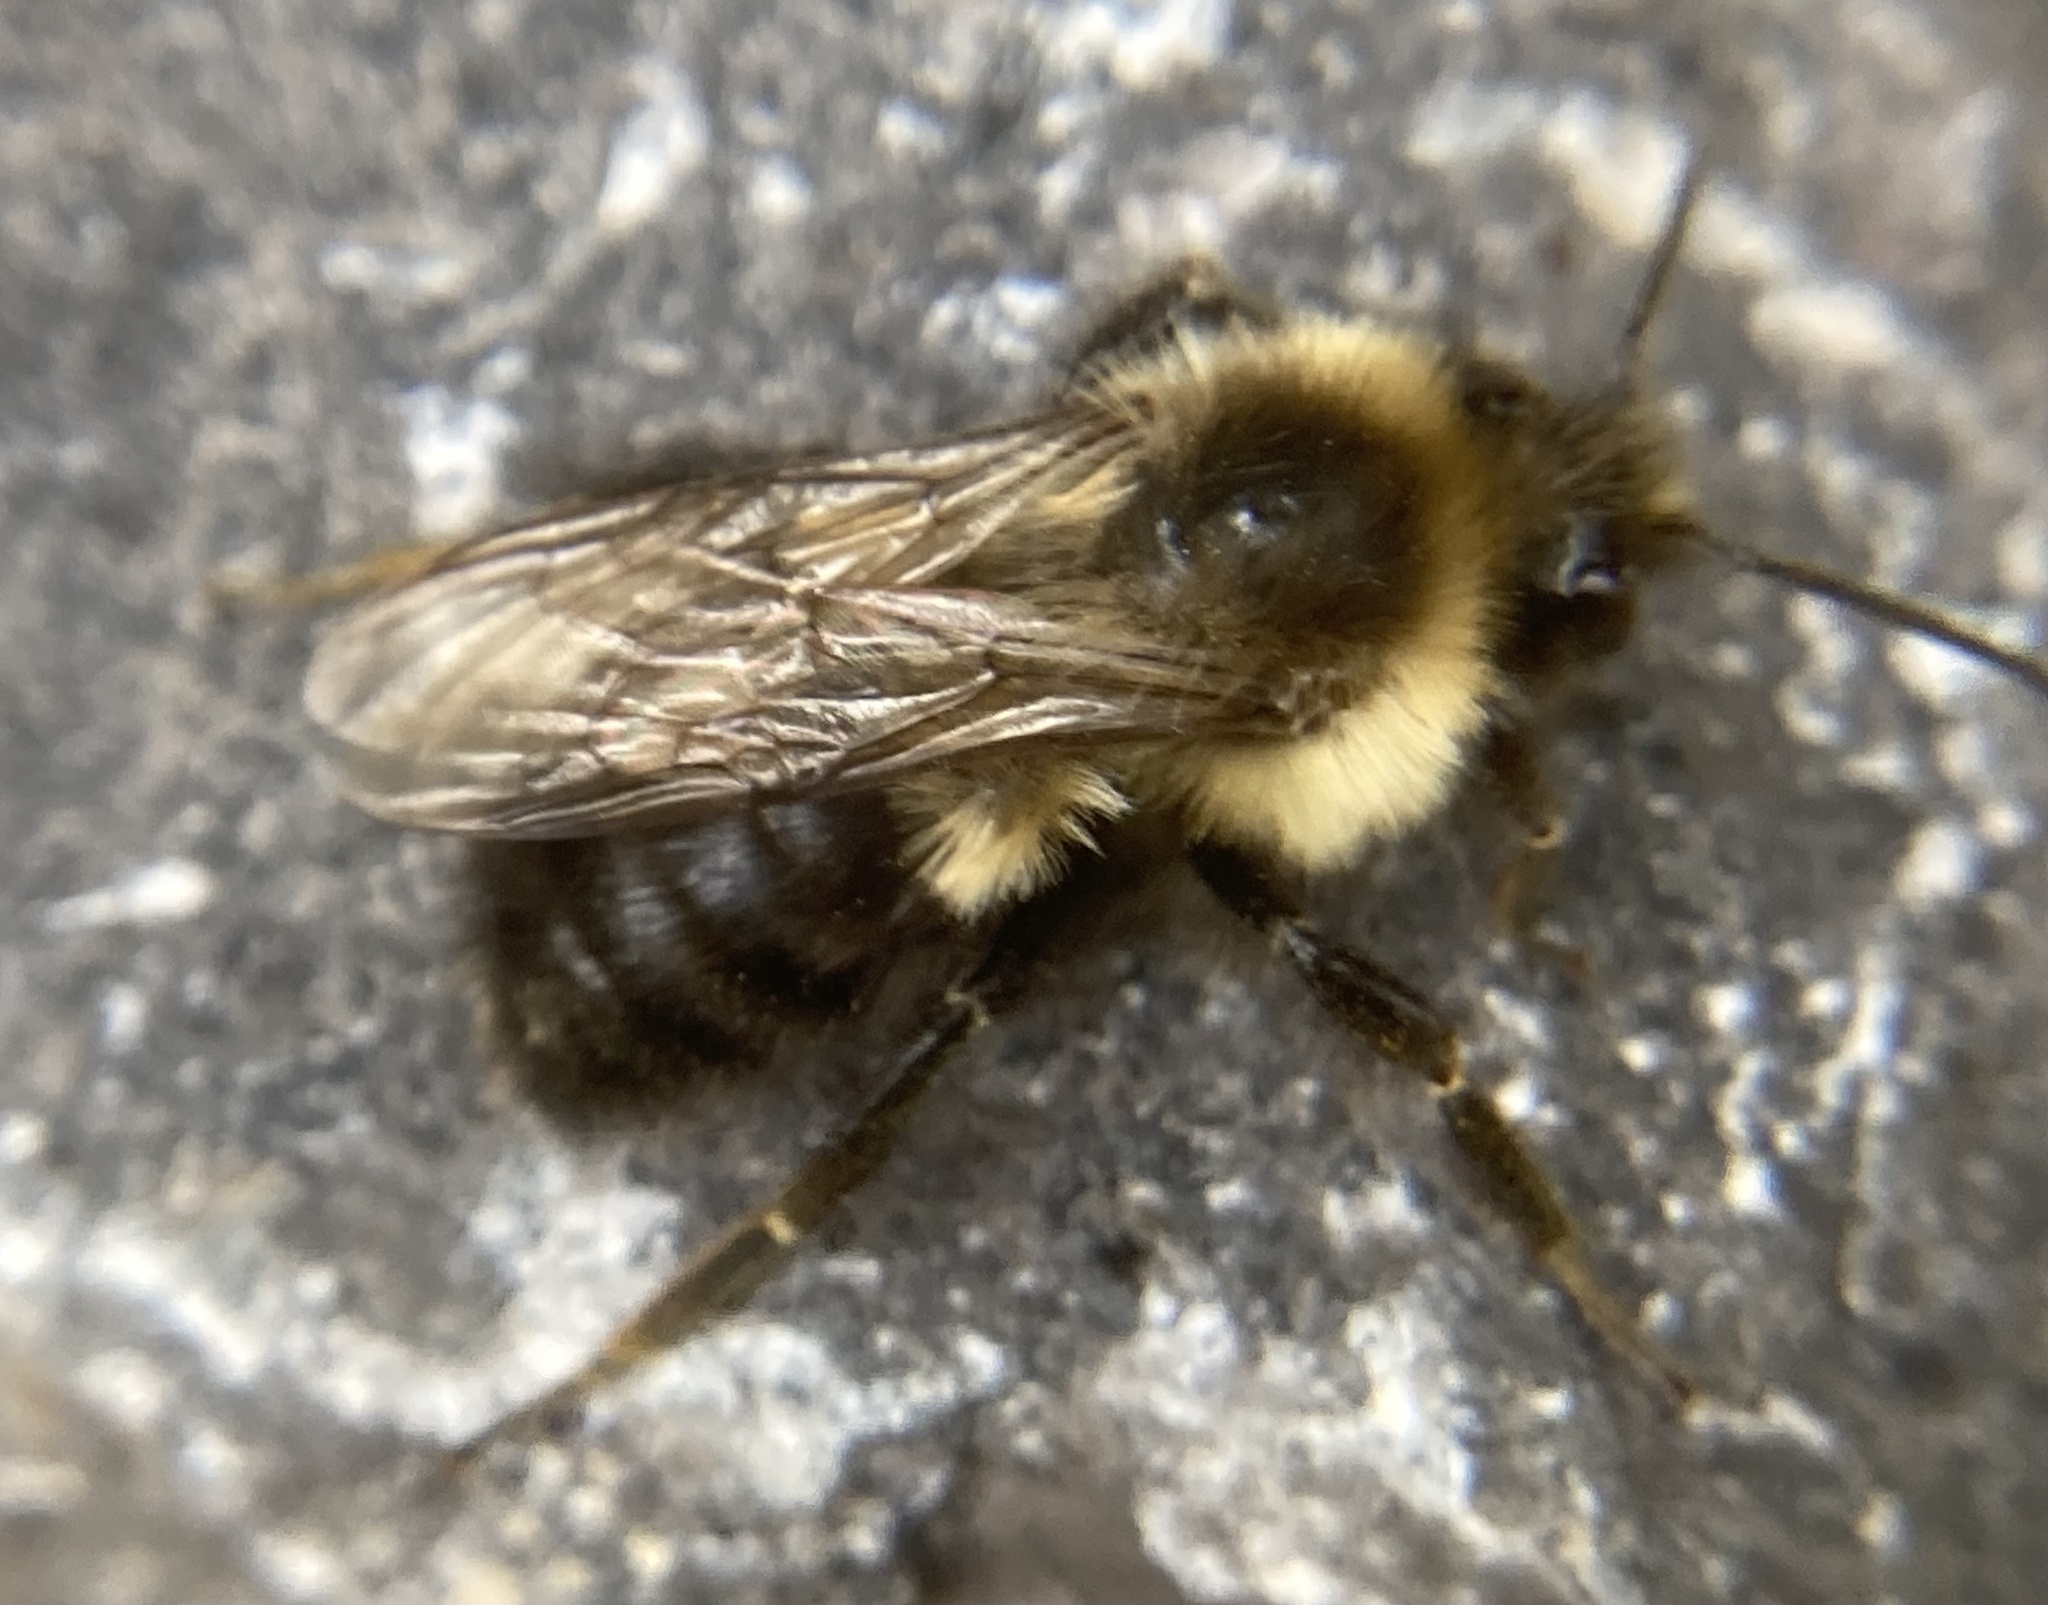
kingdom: Animalia
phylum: Arthropoda
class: Insecta
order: Hymenoptera
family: Apidae
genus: Bombus
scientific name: Bombus impatiens
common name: Common eastern bumble bee
